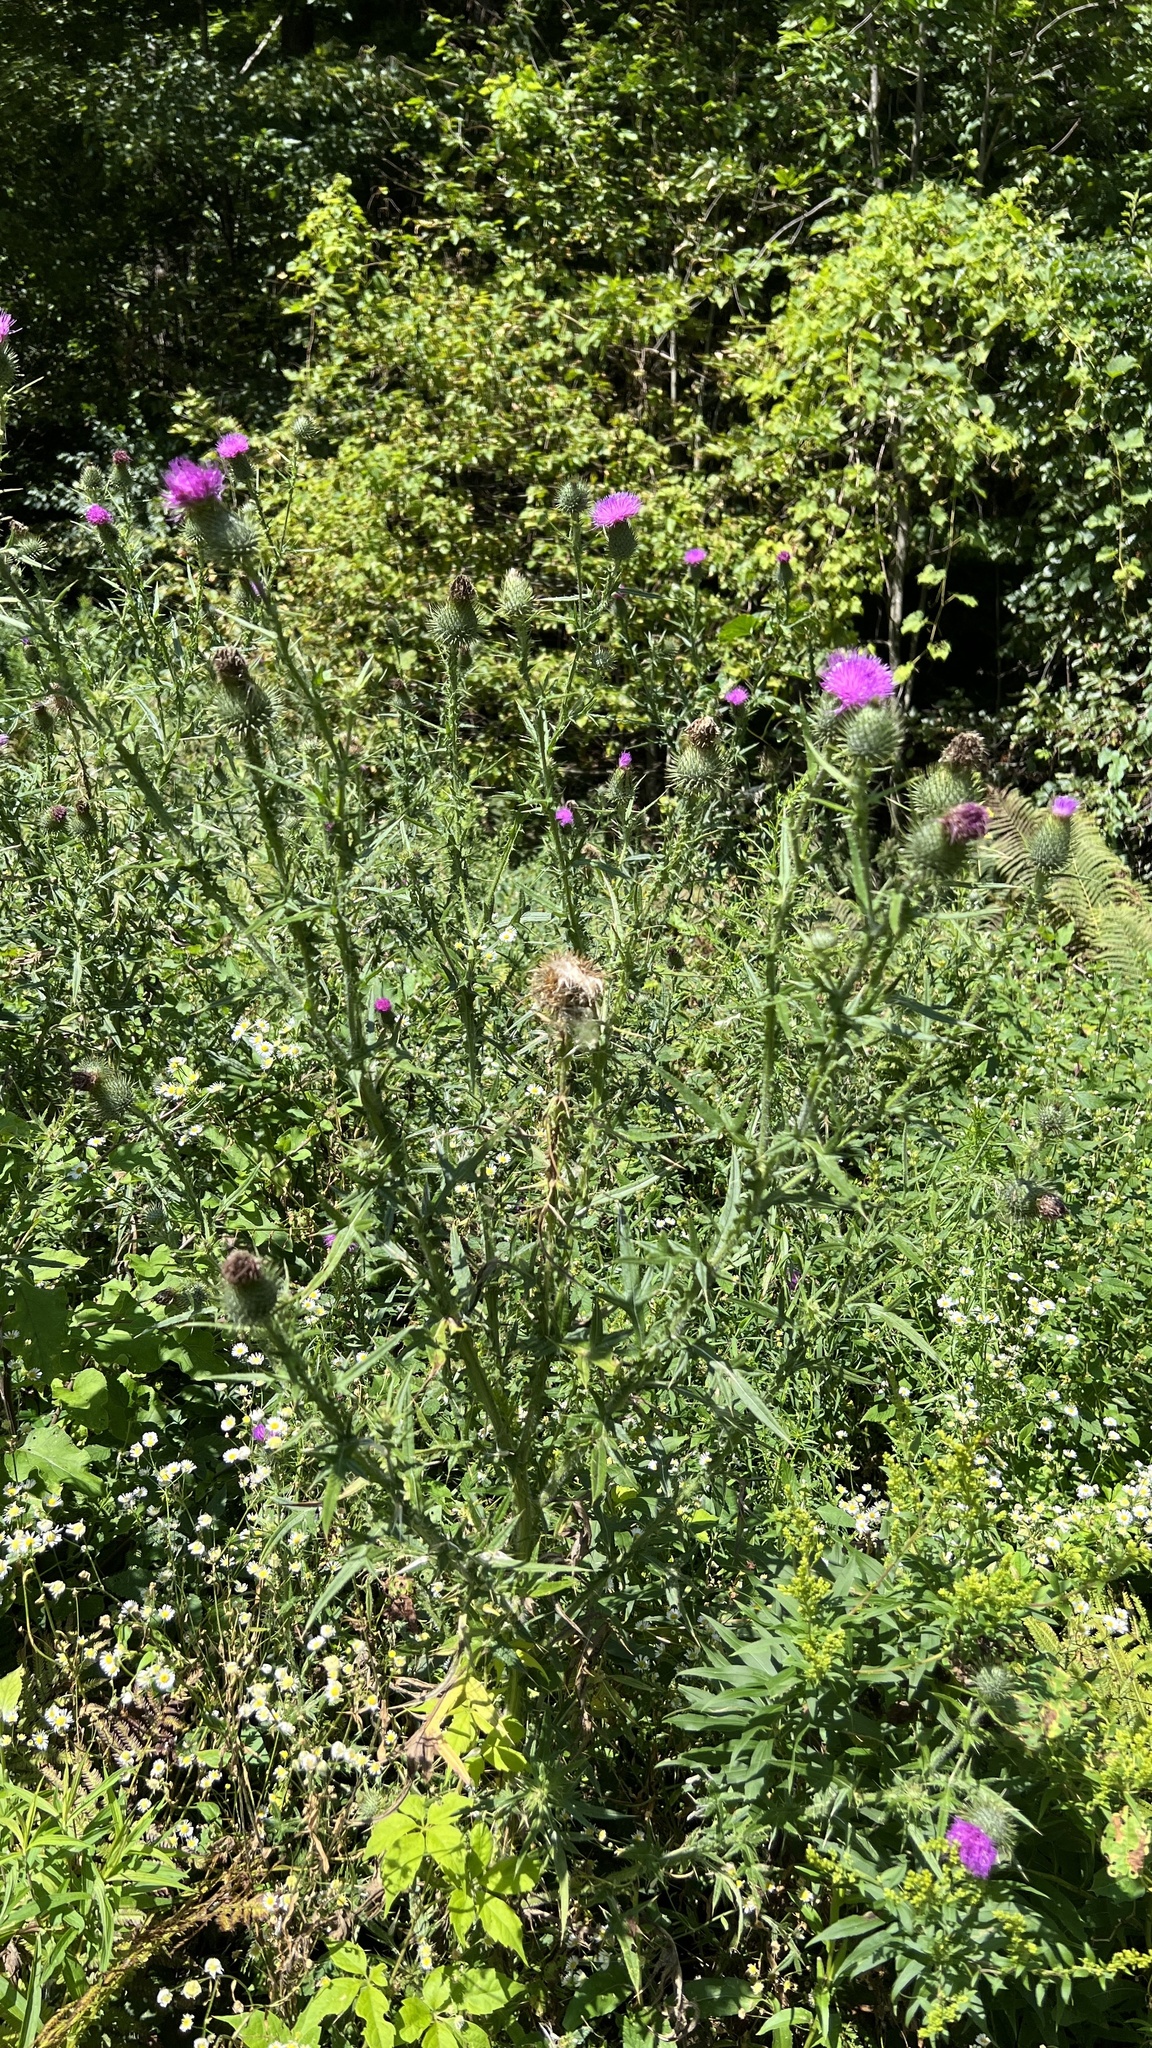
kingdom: Plantae
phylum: Tracheophyta
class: Magnoliopsida
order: Asterales
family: Asteraceae
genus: Cirsium
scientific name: Cirsium vulgare
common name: Bull thistle
